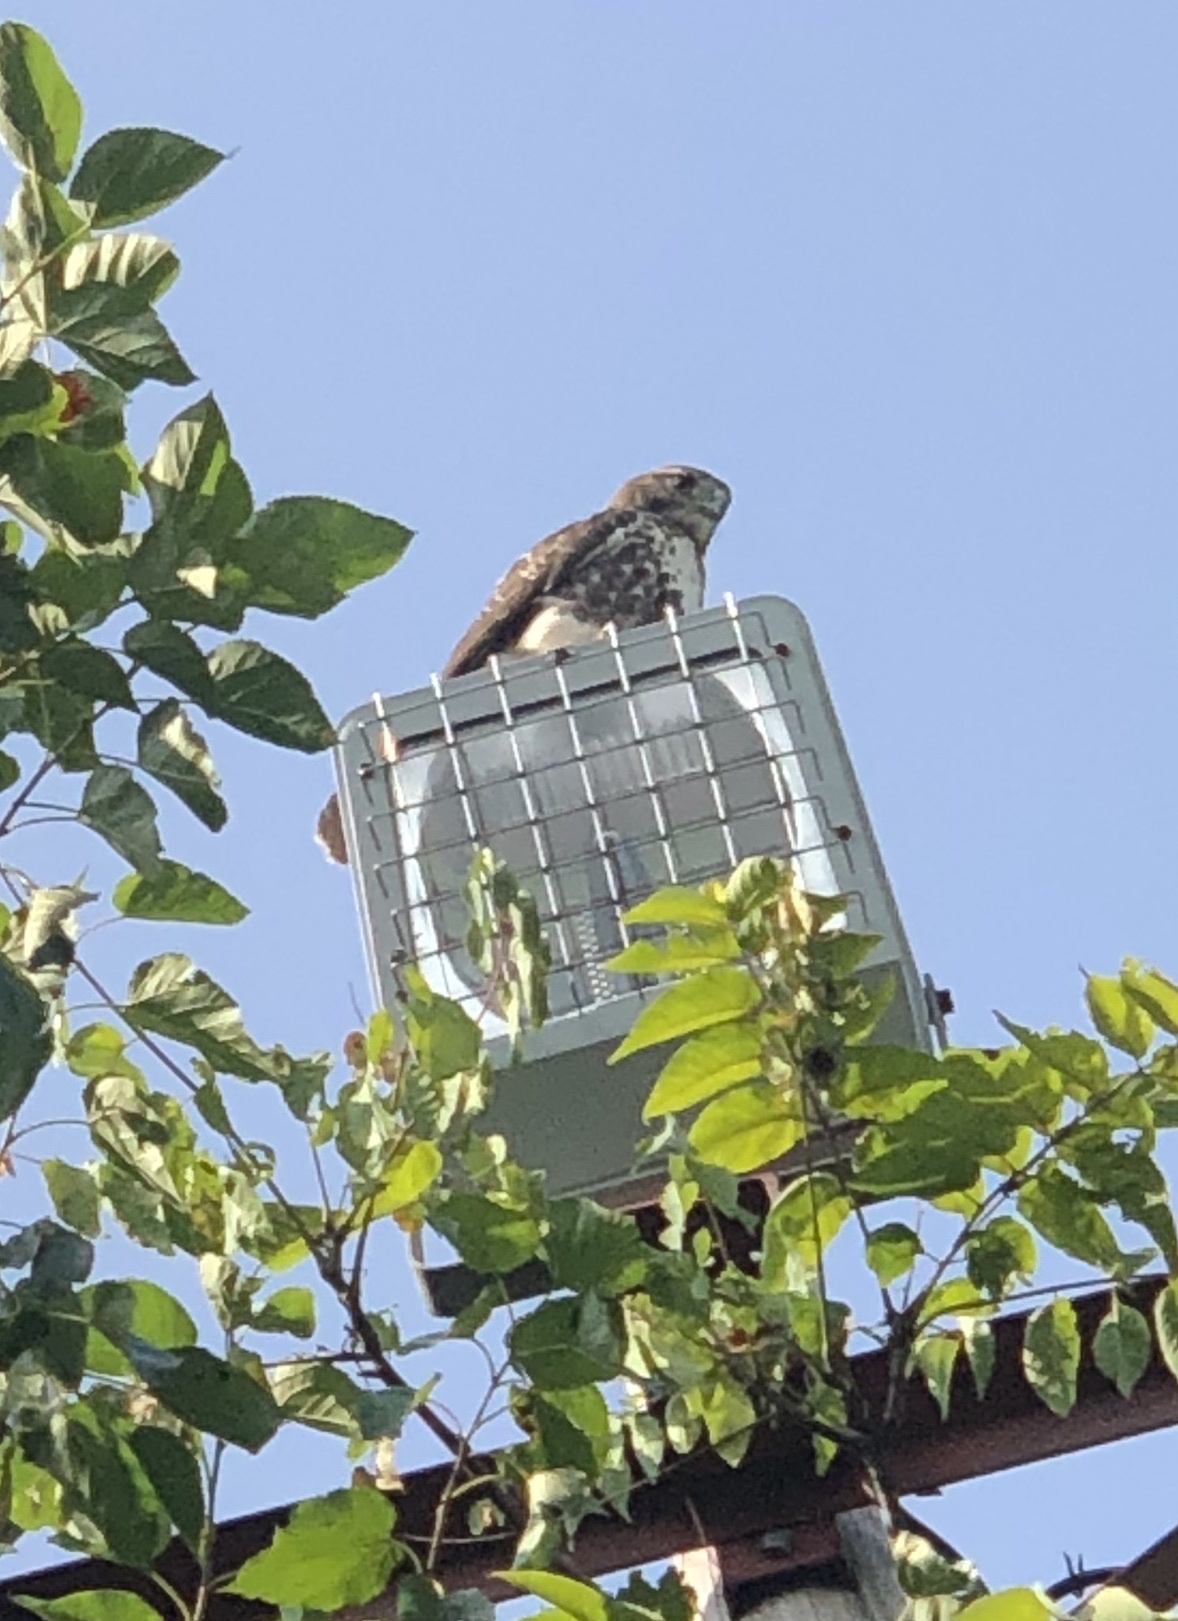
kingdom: Animalia
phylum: Chordata
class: Aves
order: Accipitriformes
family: Accipitridae
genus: Buteo
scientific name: Buteo jamaicensis
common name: Red-tailed hawk
